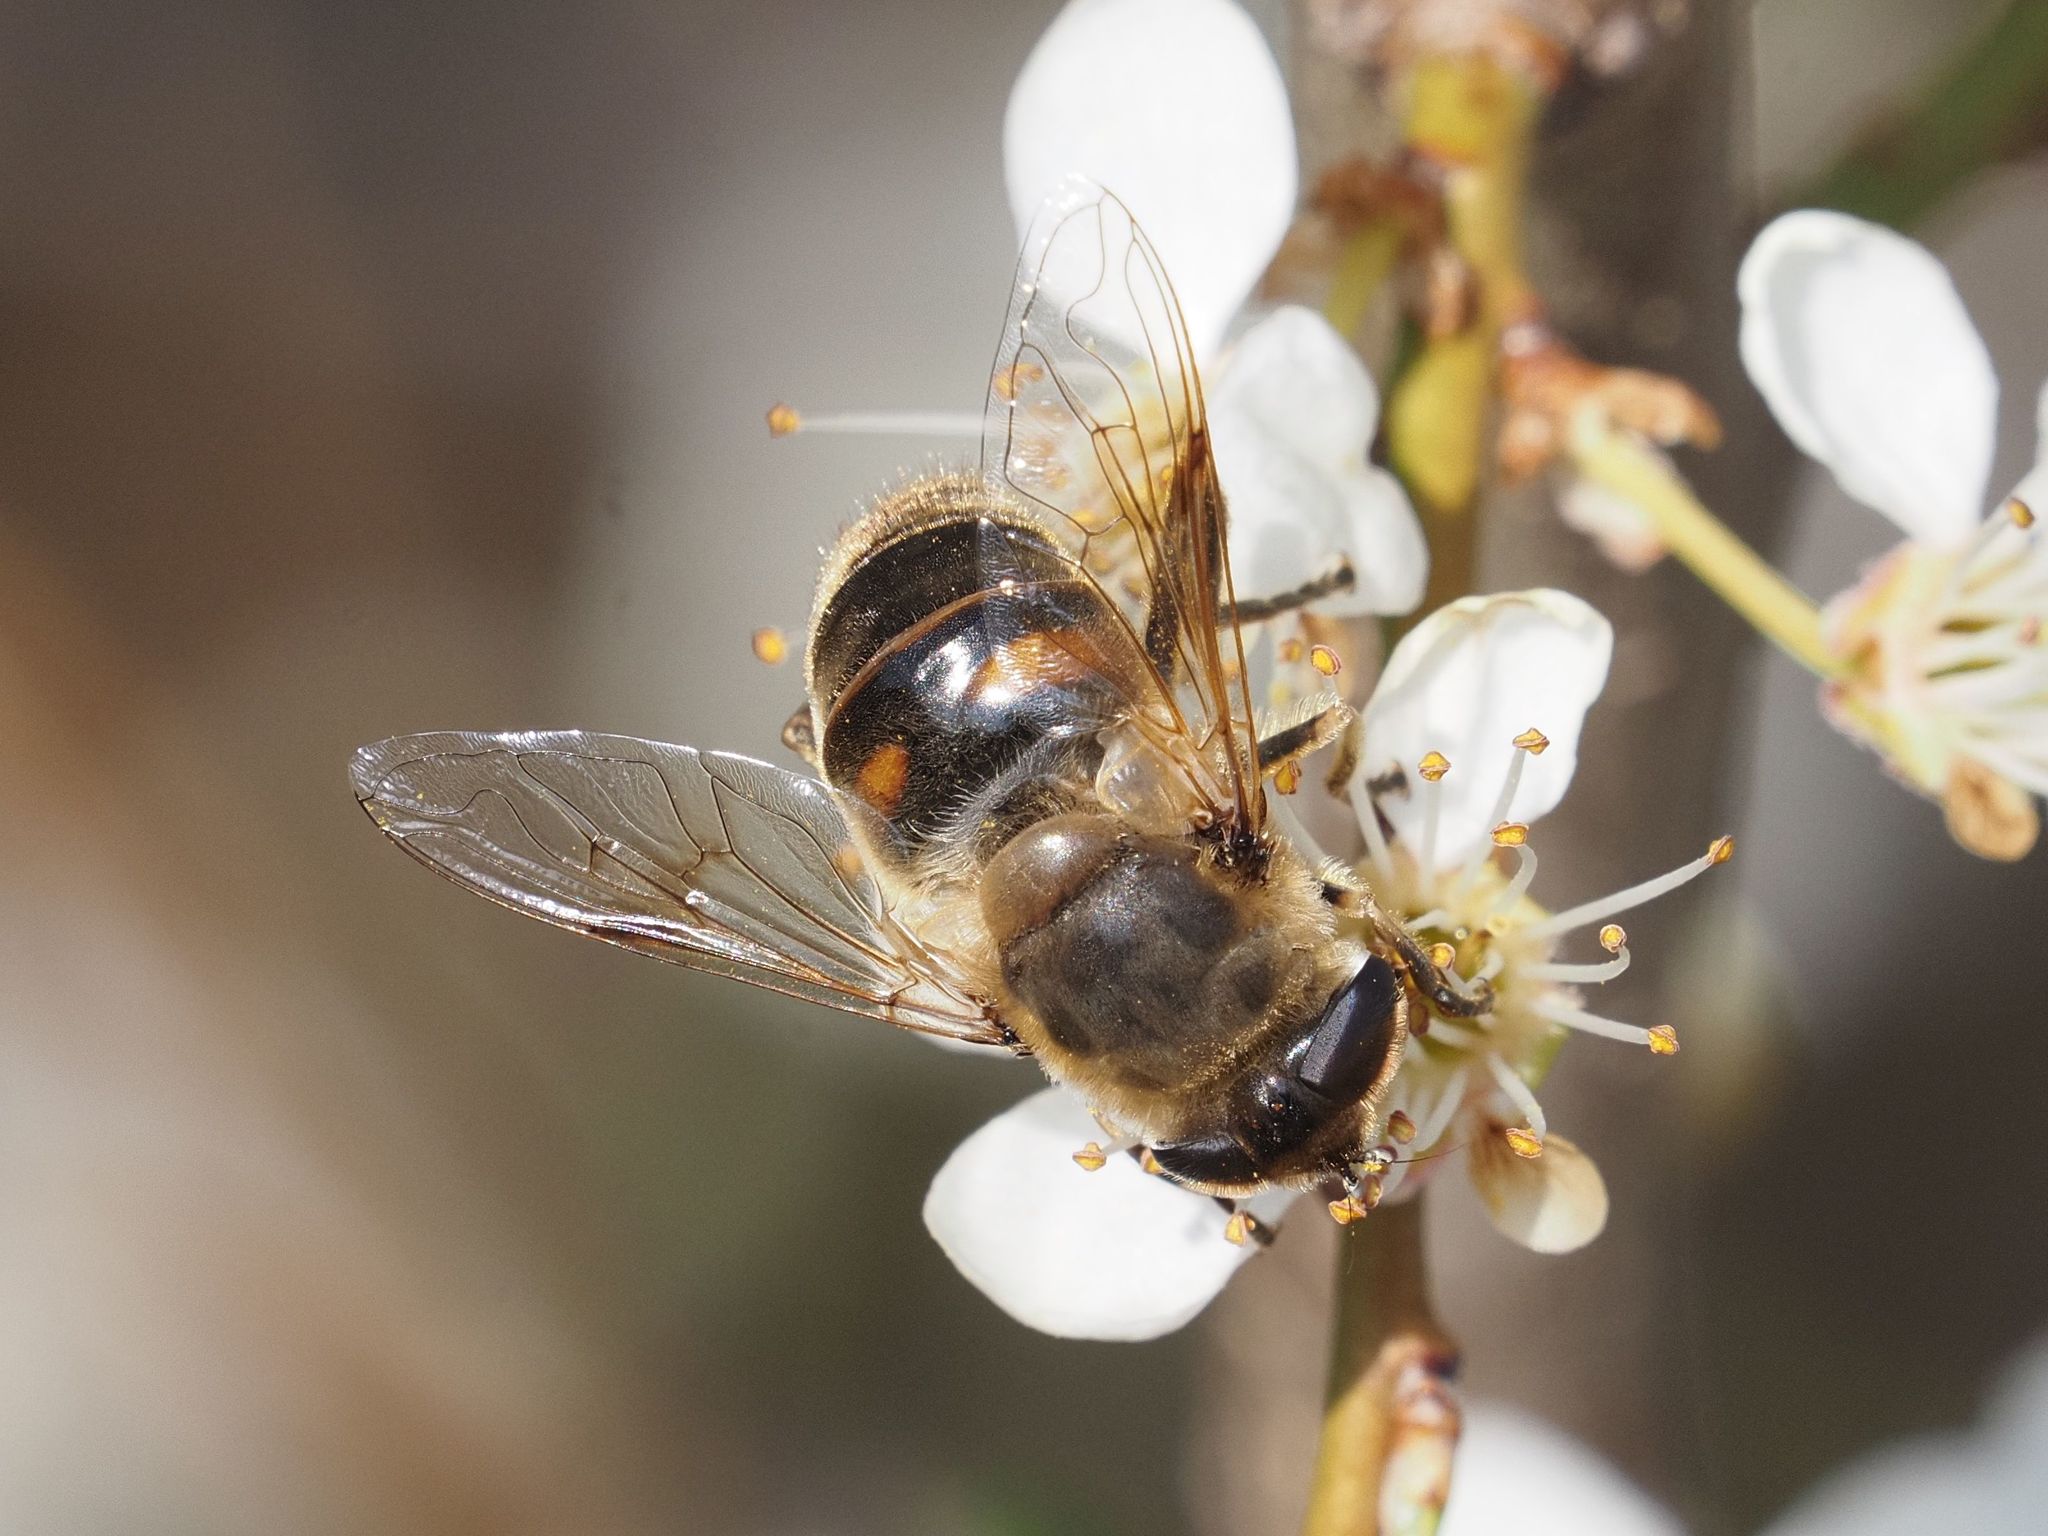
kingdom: Animalia
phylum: Arthropoda
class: Insecta
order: Diptera
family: Syrphidae
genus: Eristalis
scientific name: Eristalis tenax
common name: Drone fly
